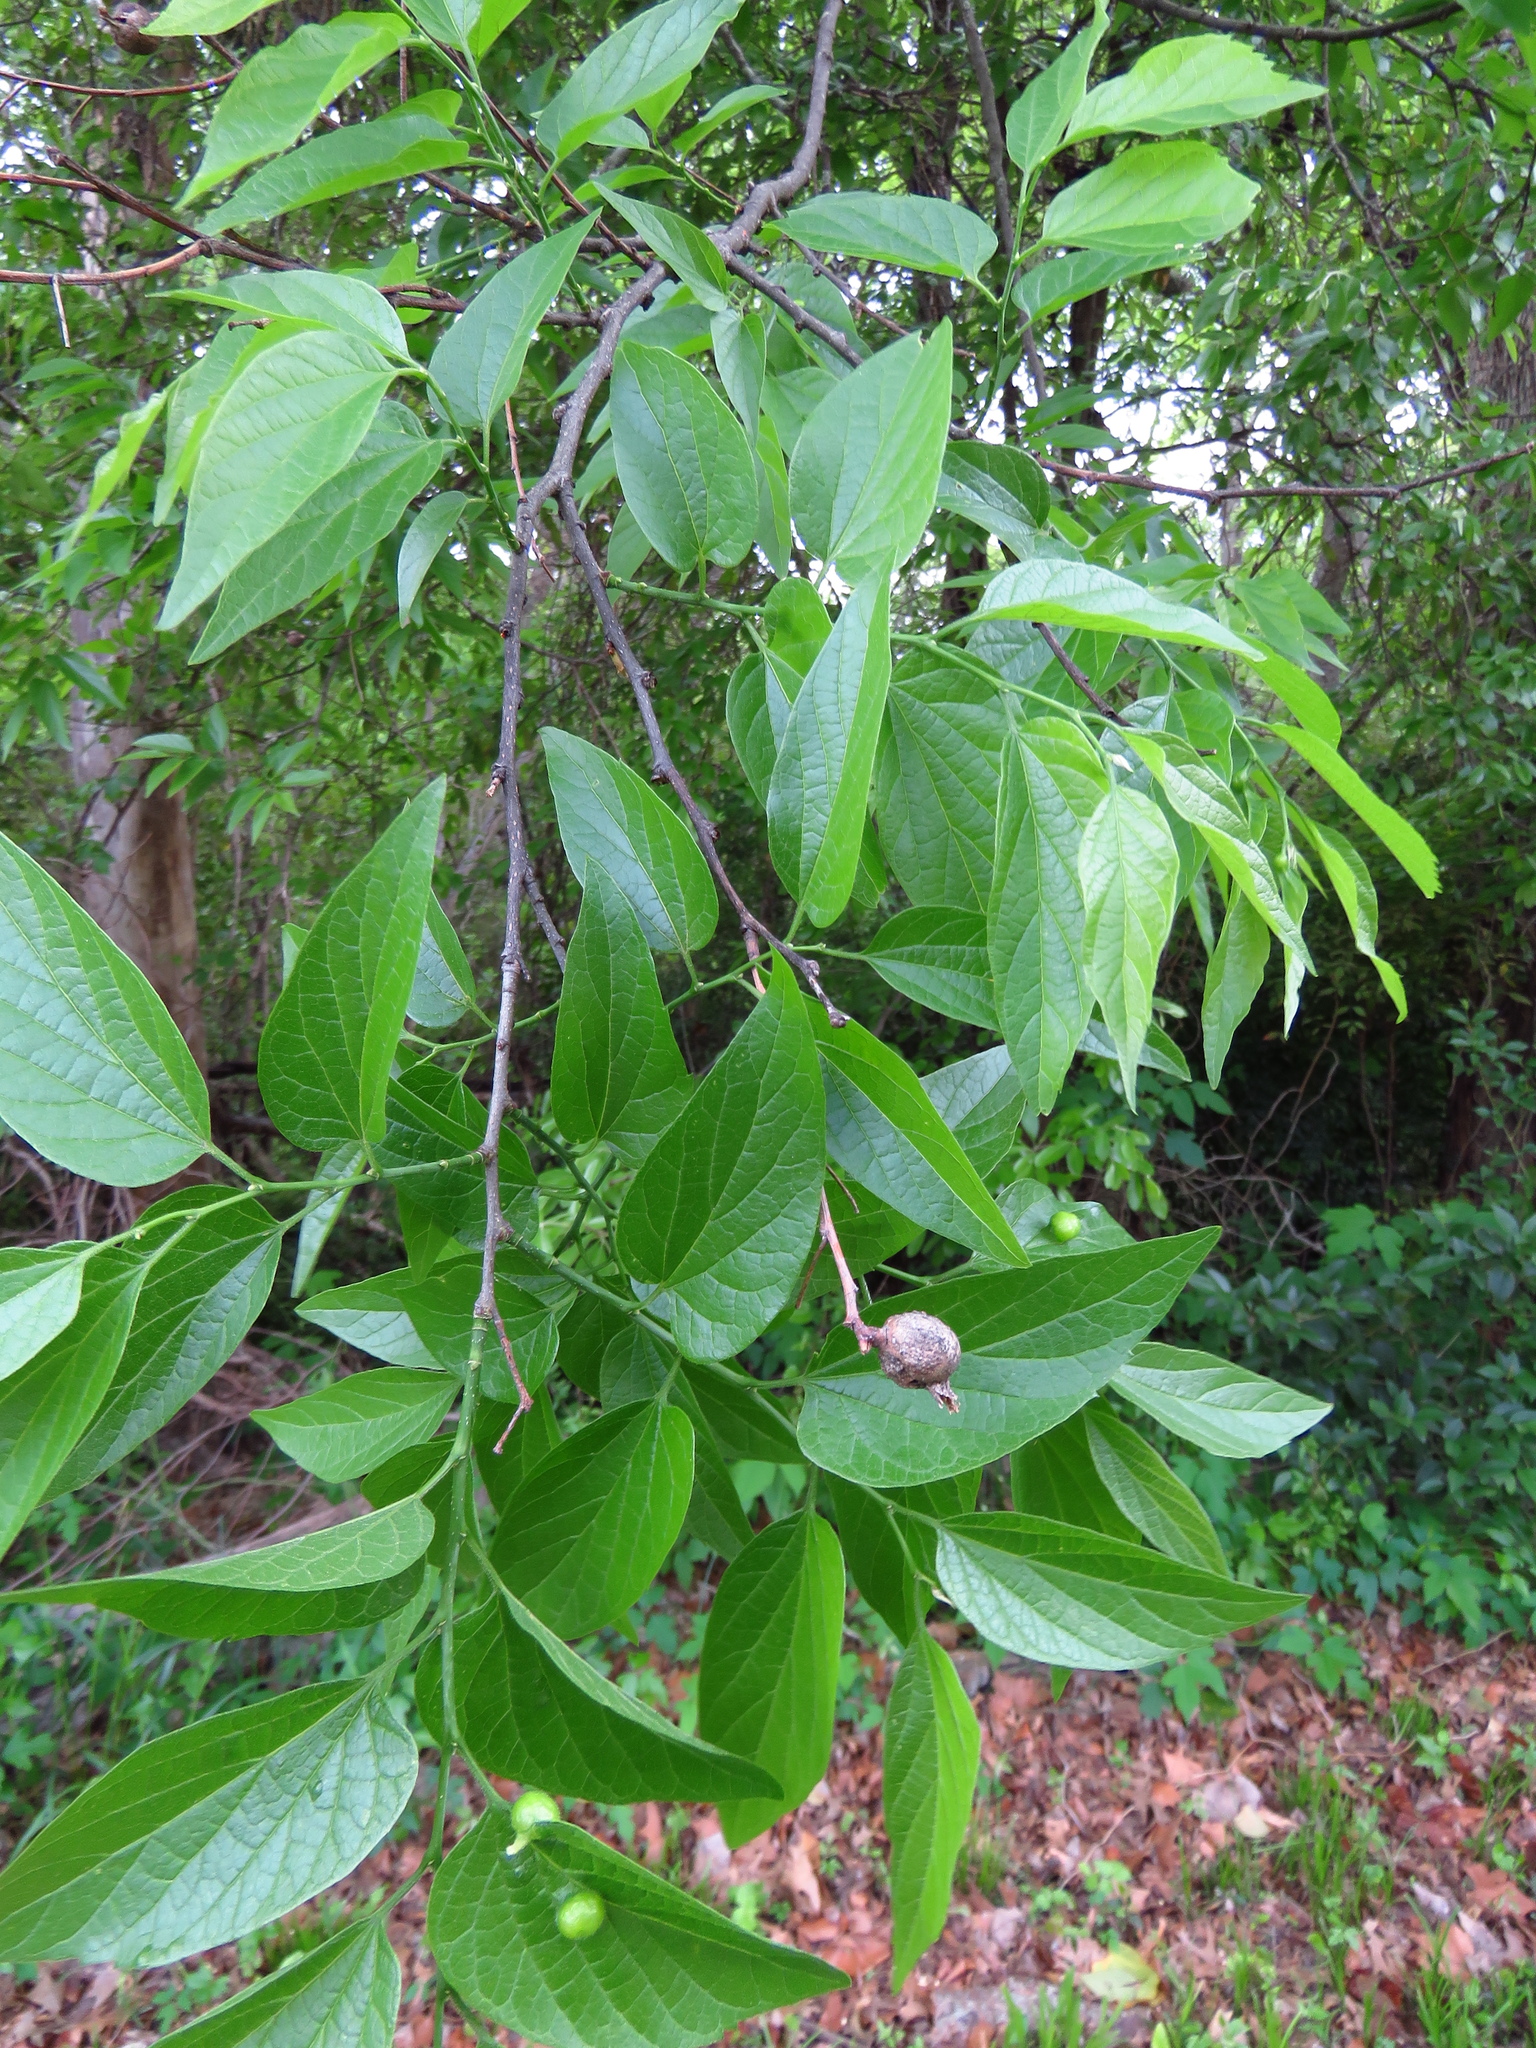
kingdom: Plantae
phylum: Tracheophyta
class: Magnoliopsida
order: Rosales
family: Cannabaceae
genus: Celtis
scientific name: Celtis laevigata
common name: Sugarberry
